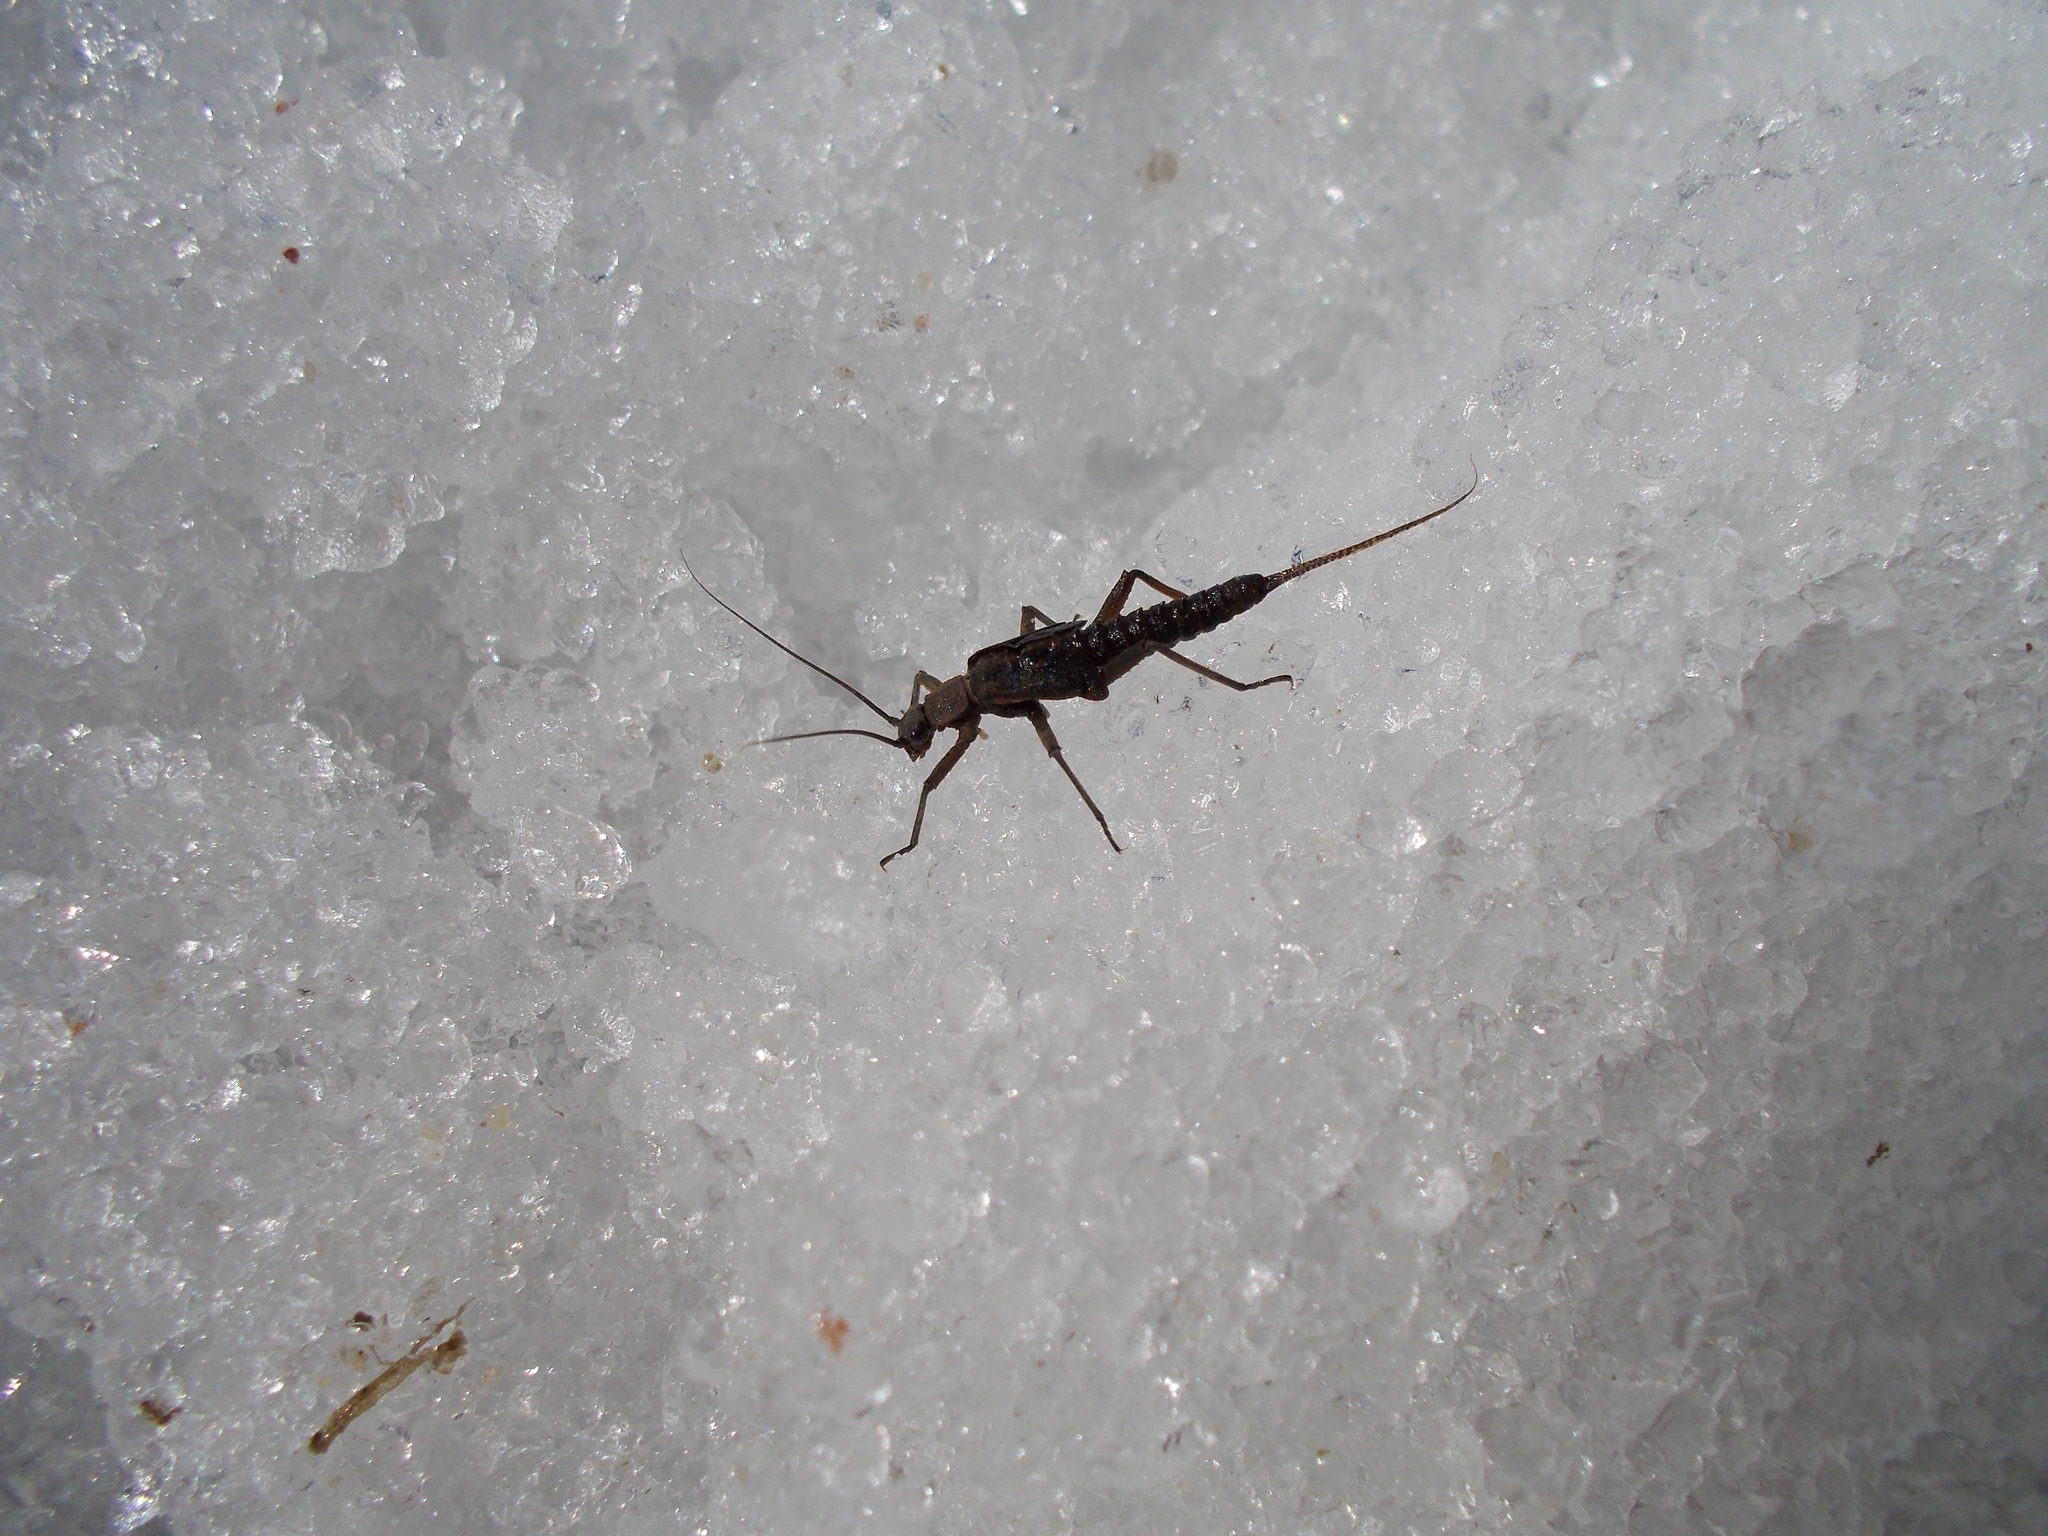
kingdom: Animalia
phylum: Arthropoda
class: Insecta
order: Plecoptera
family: Taeniopterygidae
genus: Taeniopteryx
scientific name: Taeniopteryx nebulosa
